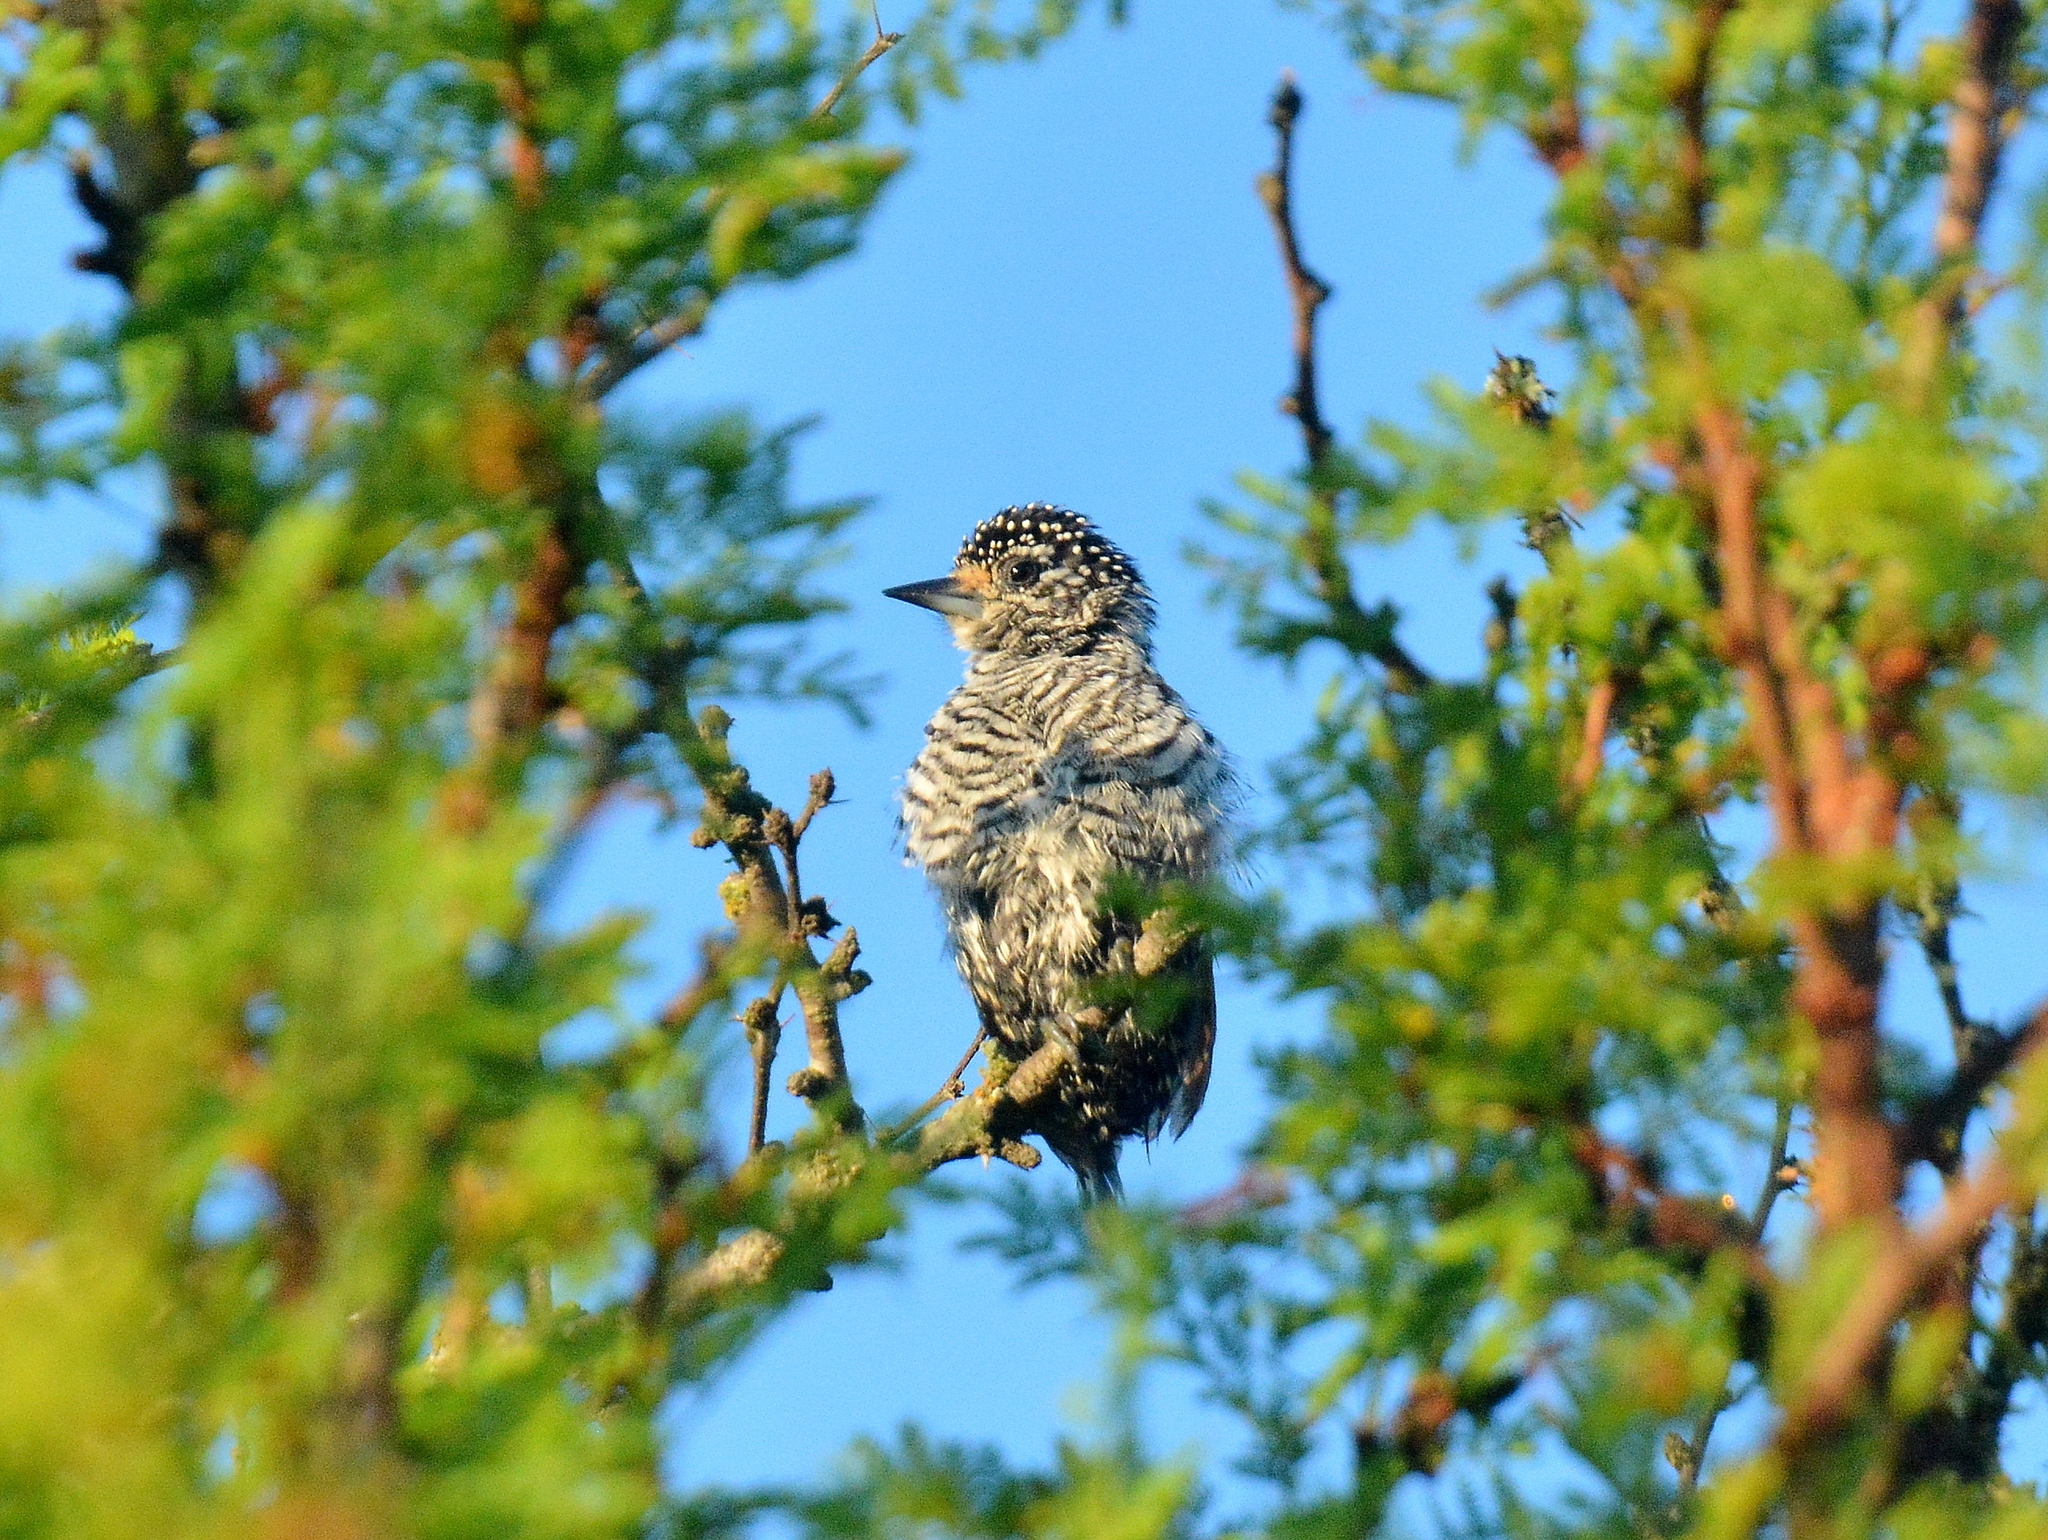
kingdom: Animalia
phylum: Chordata
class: Aves
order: Piciformes
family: Picidae
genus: Picumnus
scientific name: Picumnus cirratus
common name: White-barred piculet
